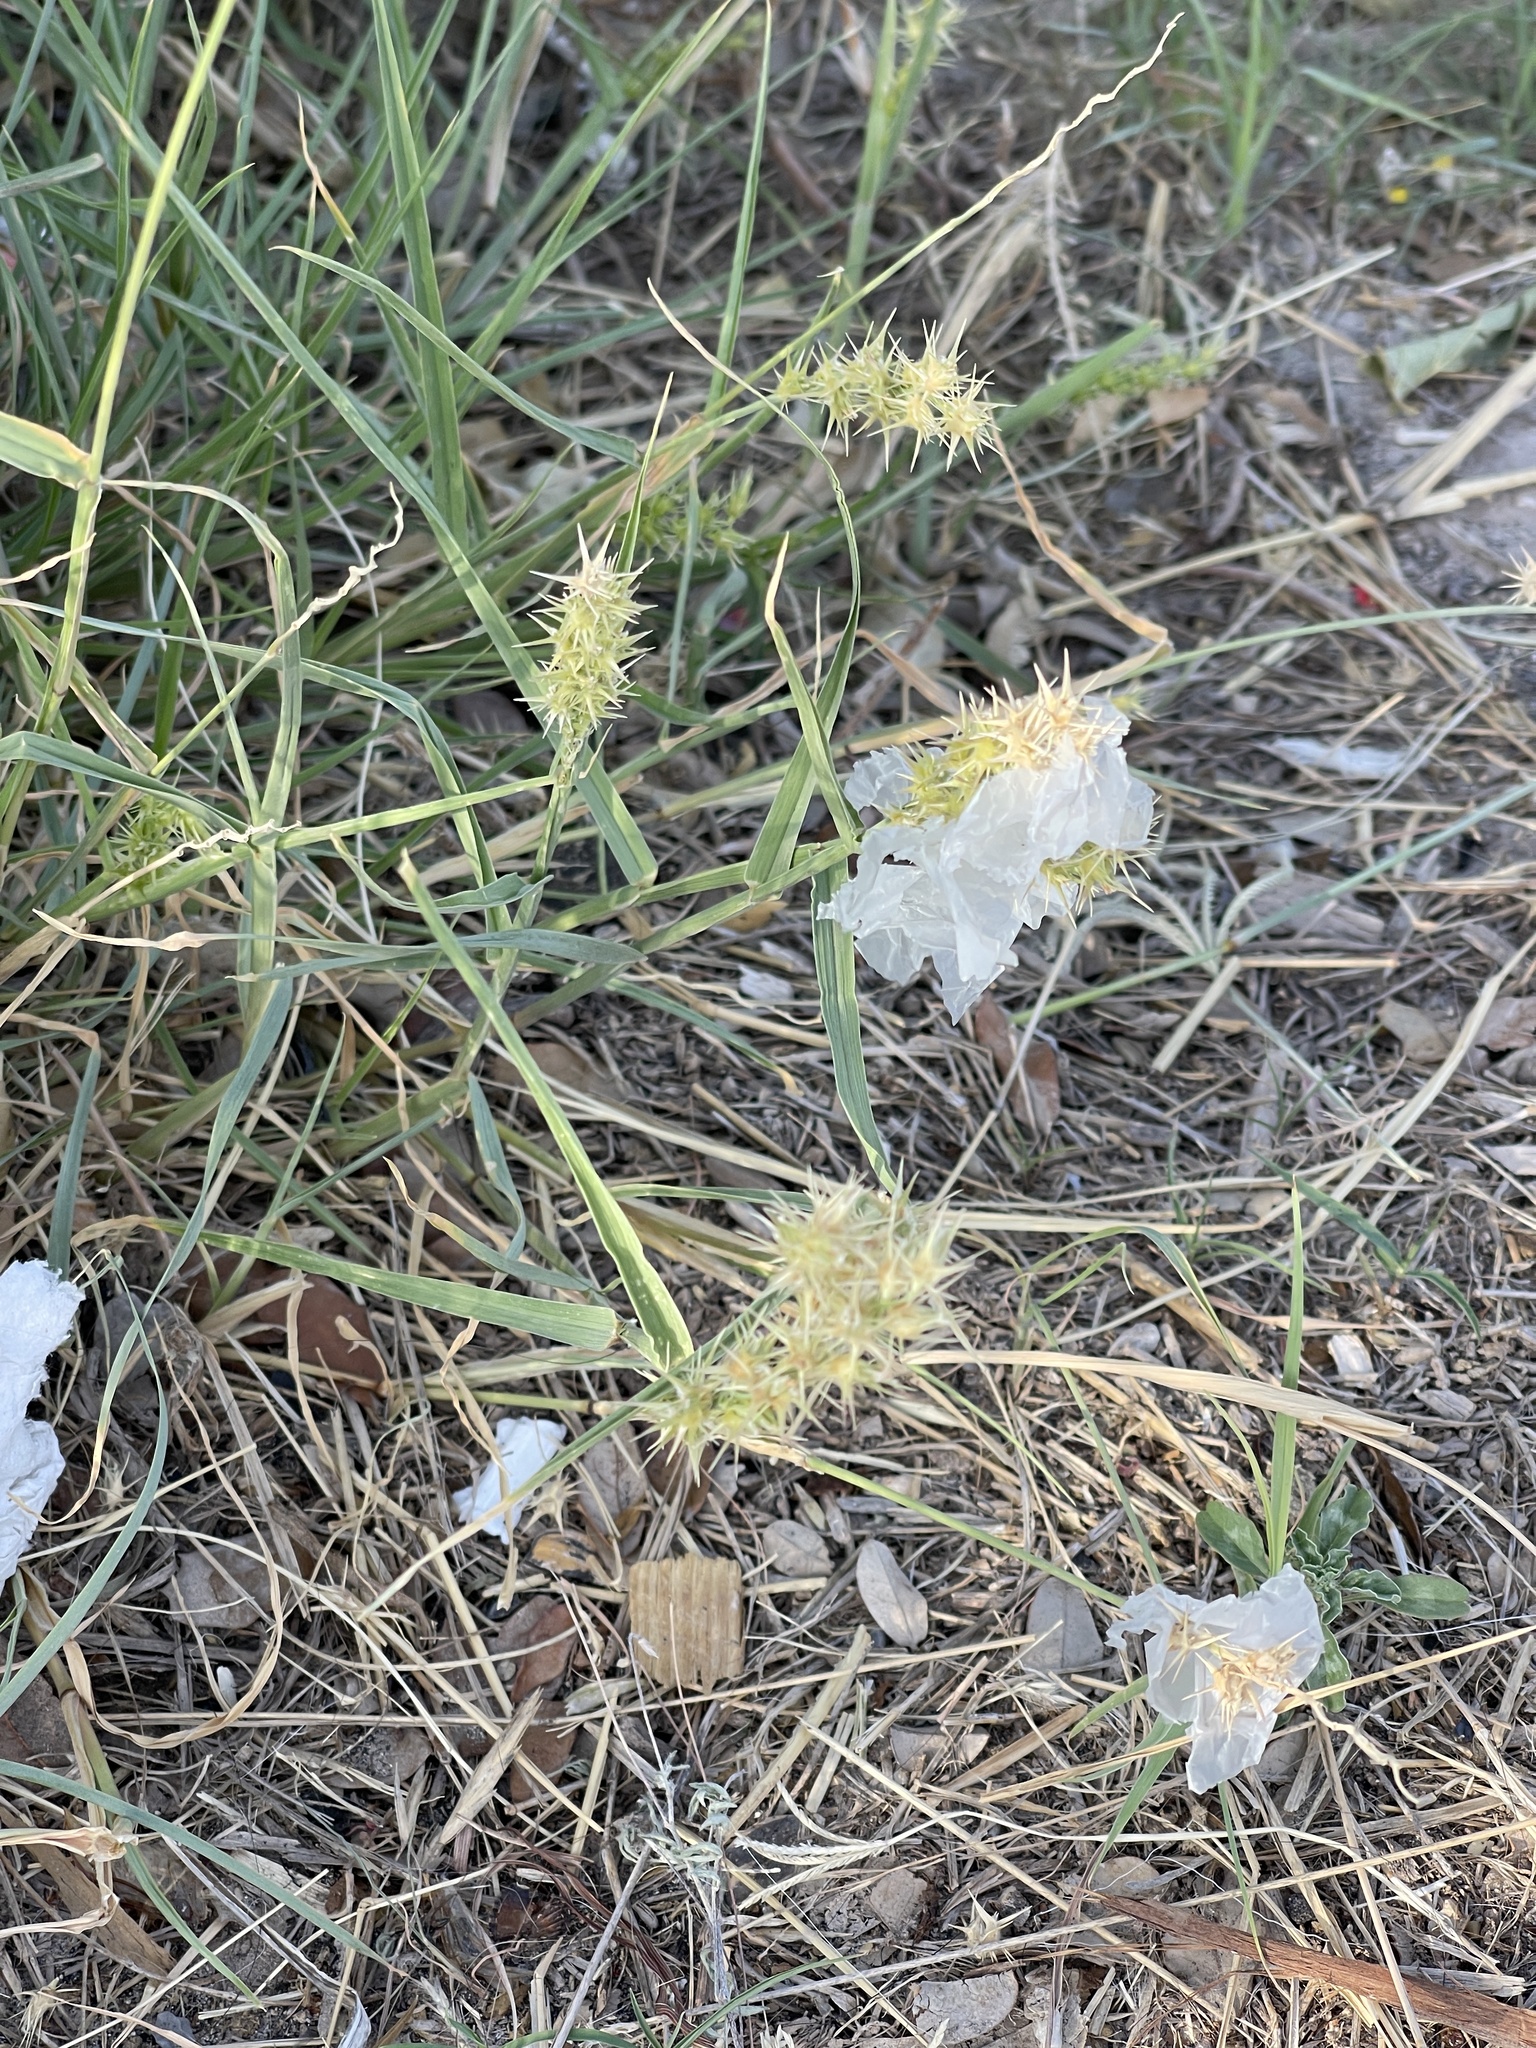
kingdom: Plantae
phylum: Tracheophyta
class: Liliopsida
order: Poales
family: Poaceae
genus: Cenchrus
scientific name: Cenchrus spinifex
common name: Coast sandbur
